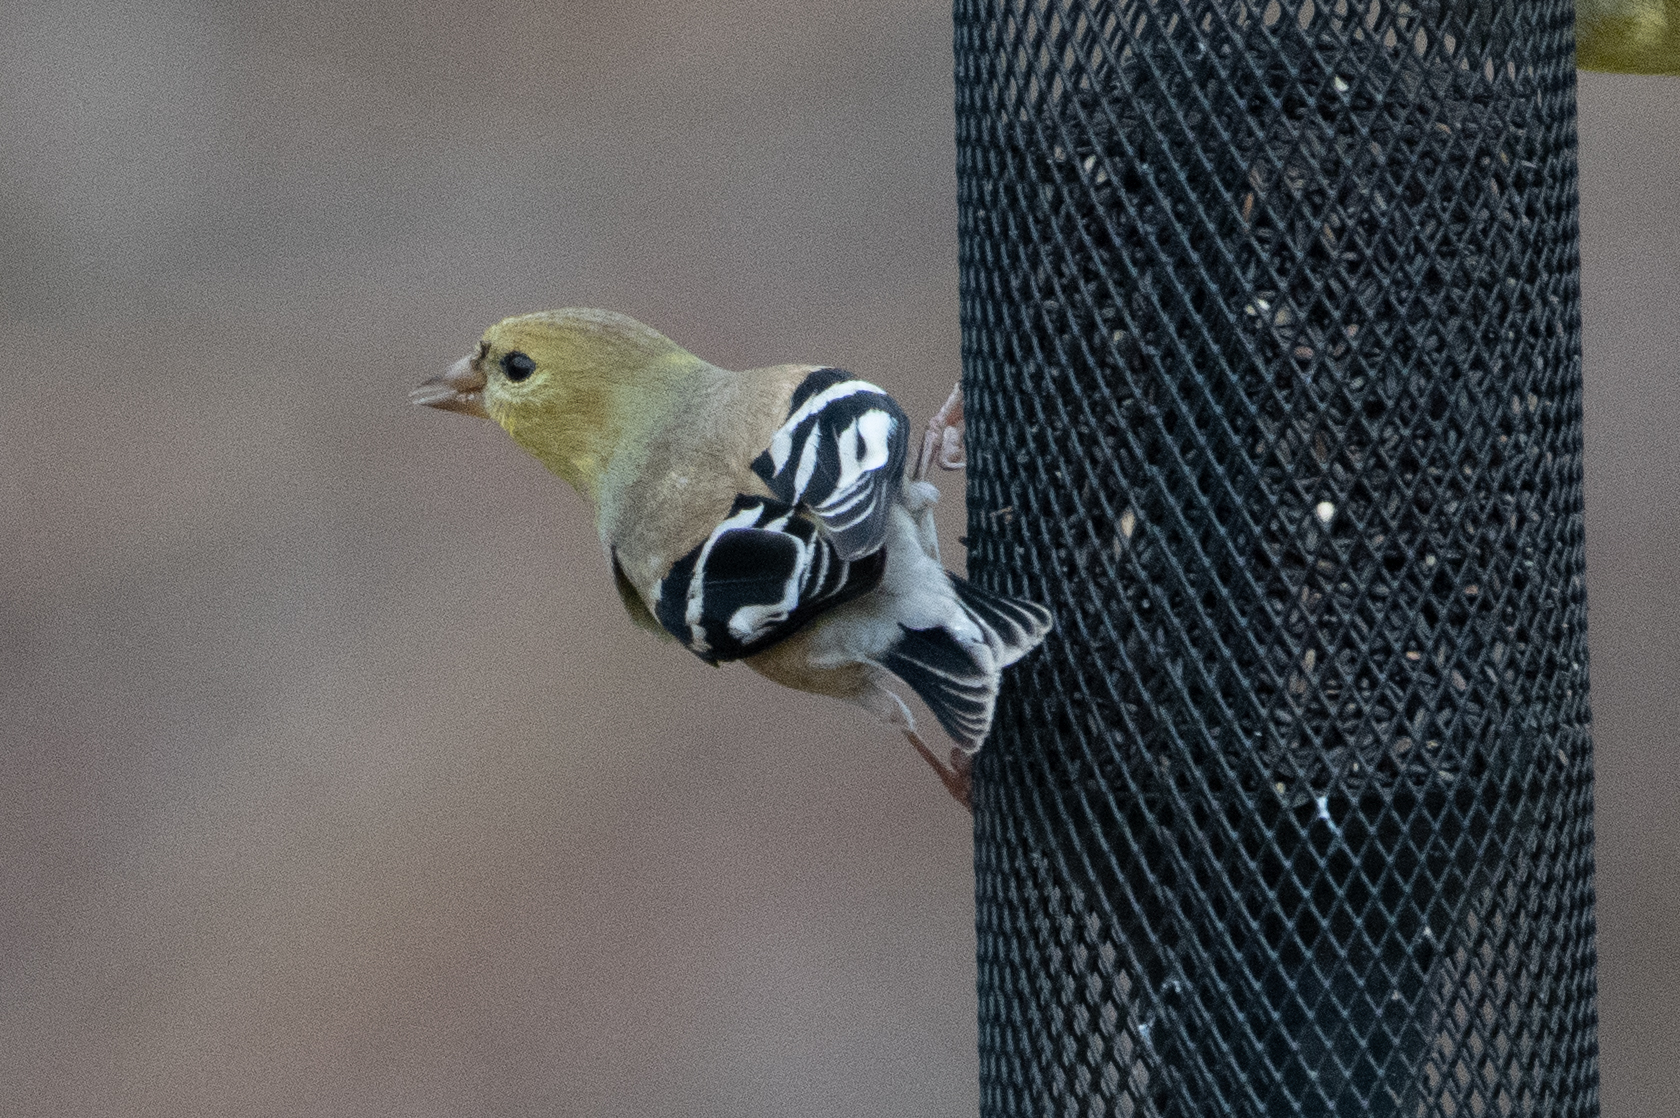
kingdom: Animalia
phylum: Chordata
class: Aves
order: Passeriformes
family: Fringillidae
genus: Spinus
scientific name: Spinus tristis
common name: American goldfinch
